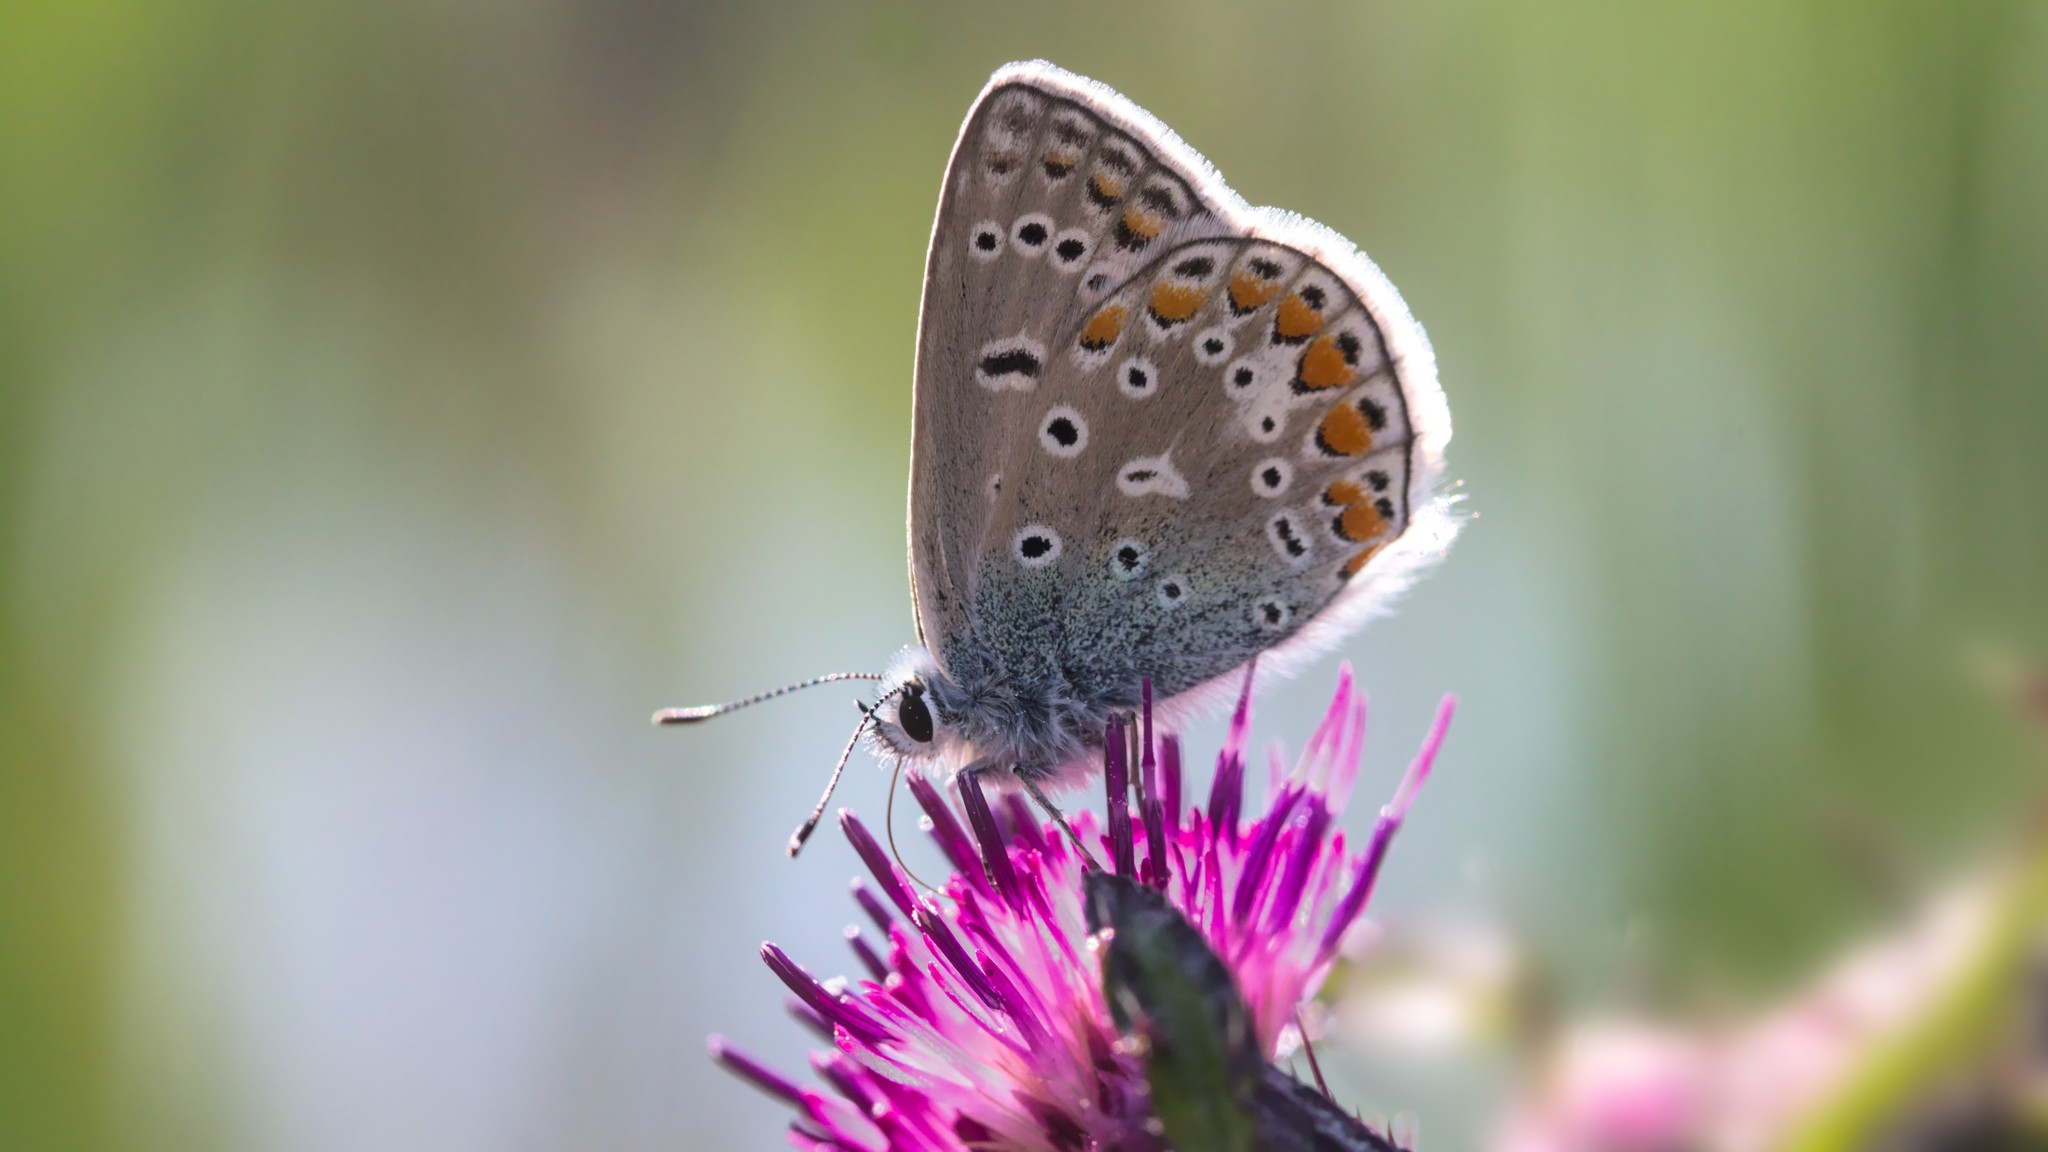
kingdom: Animalia
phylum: Arthropoda
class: Insecta
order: Lepidoptera
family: Lycaenidae
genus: Polyommatus
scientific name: Polyommatus icarus
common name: Common blue
